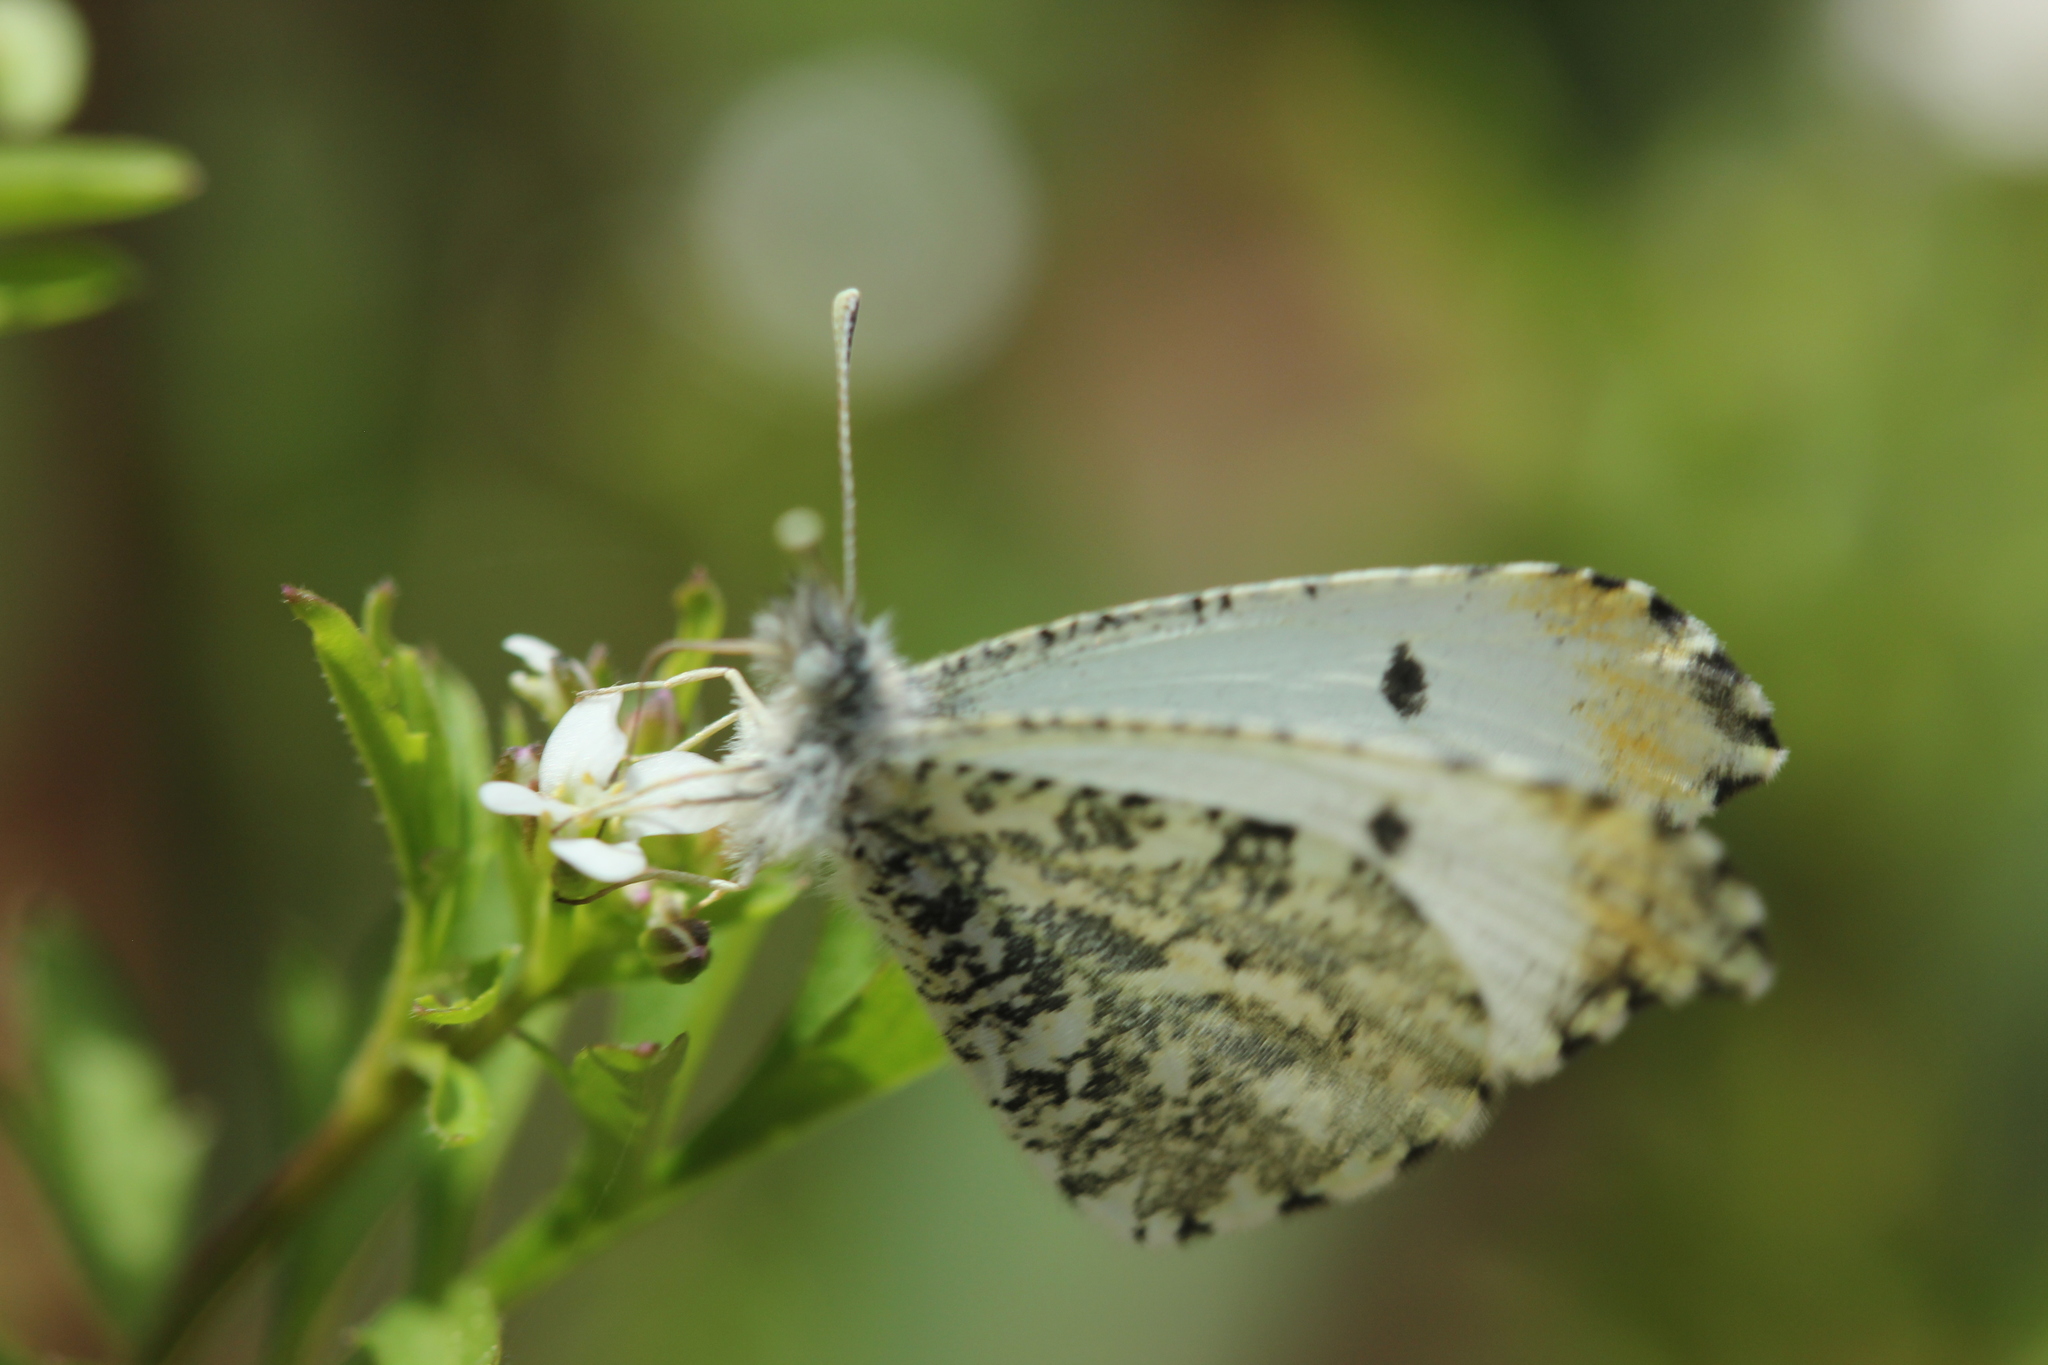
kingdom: Animalia
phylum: Arthropoda
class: Insecta
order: Lepidoptera
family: Pieridae
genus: Anthocharis
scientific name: Anthocharis midea
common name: Falcate orangetip
